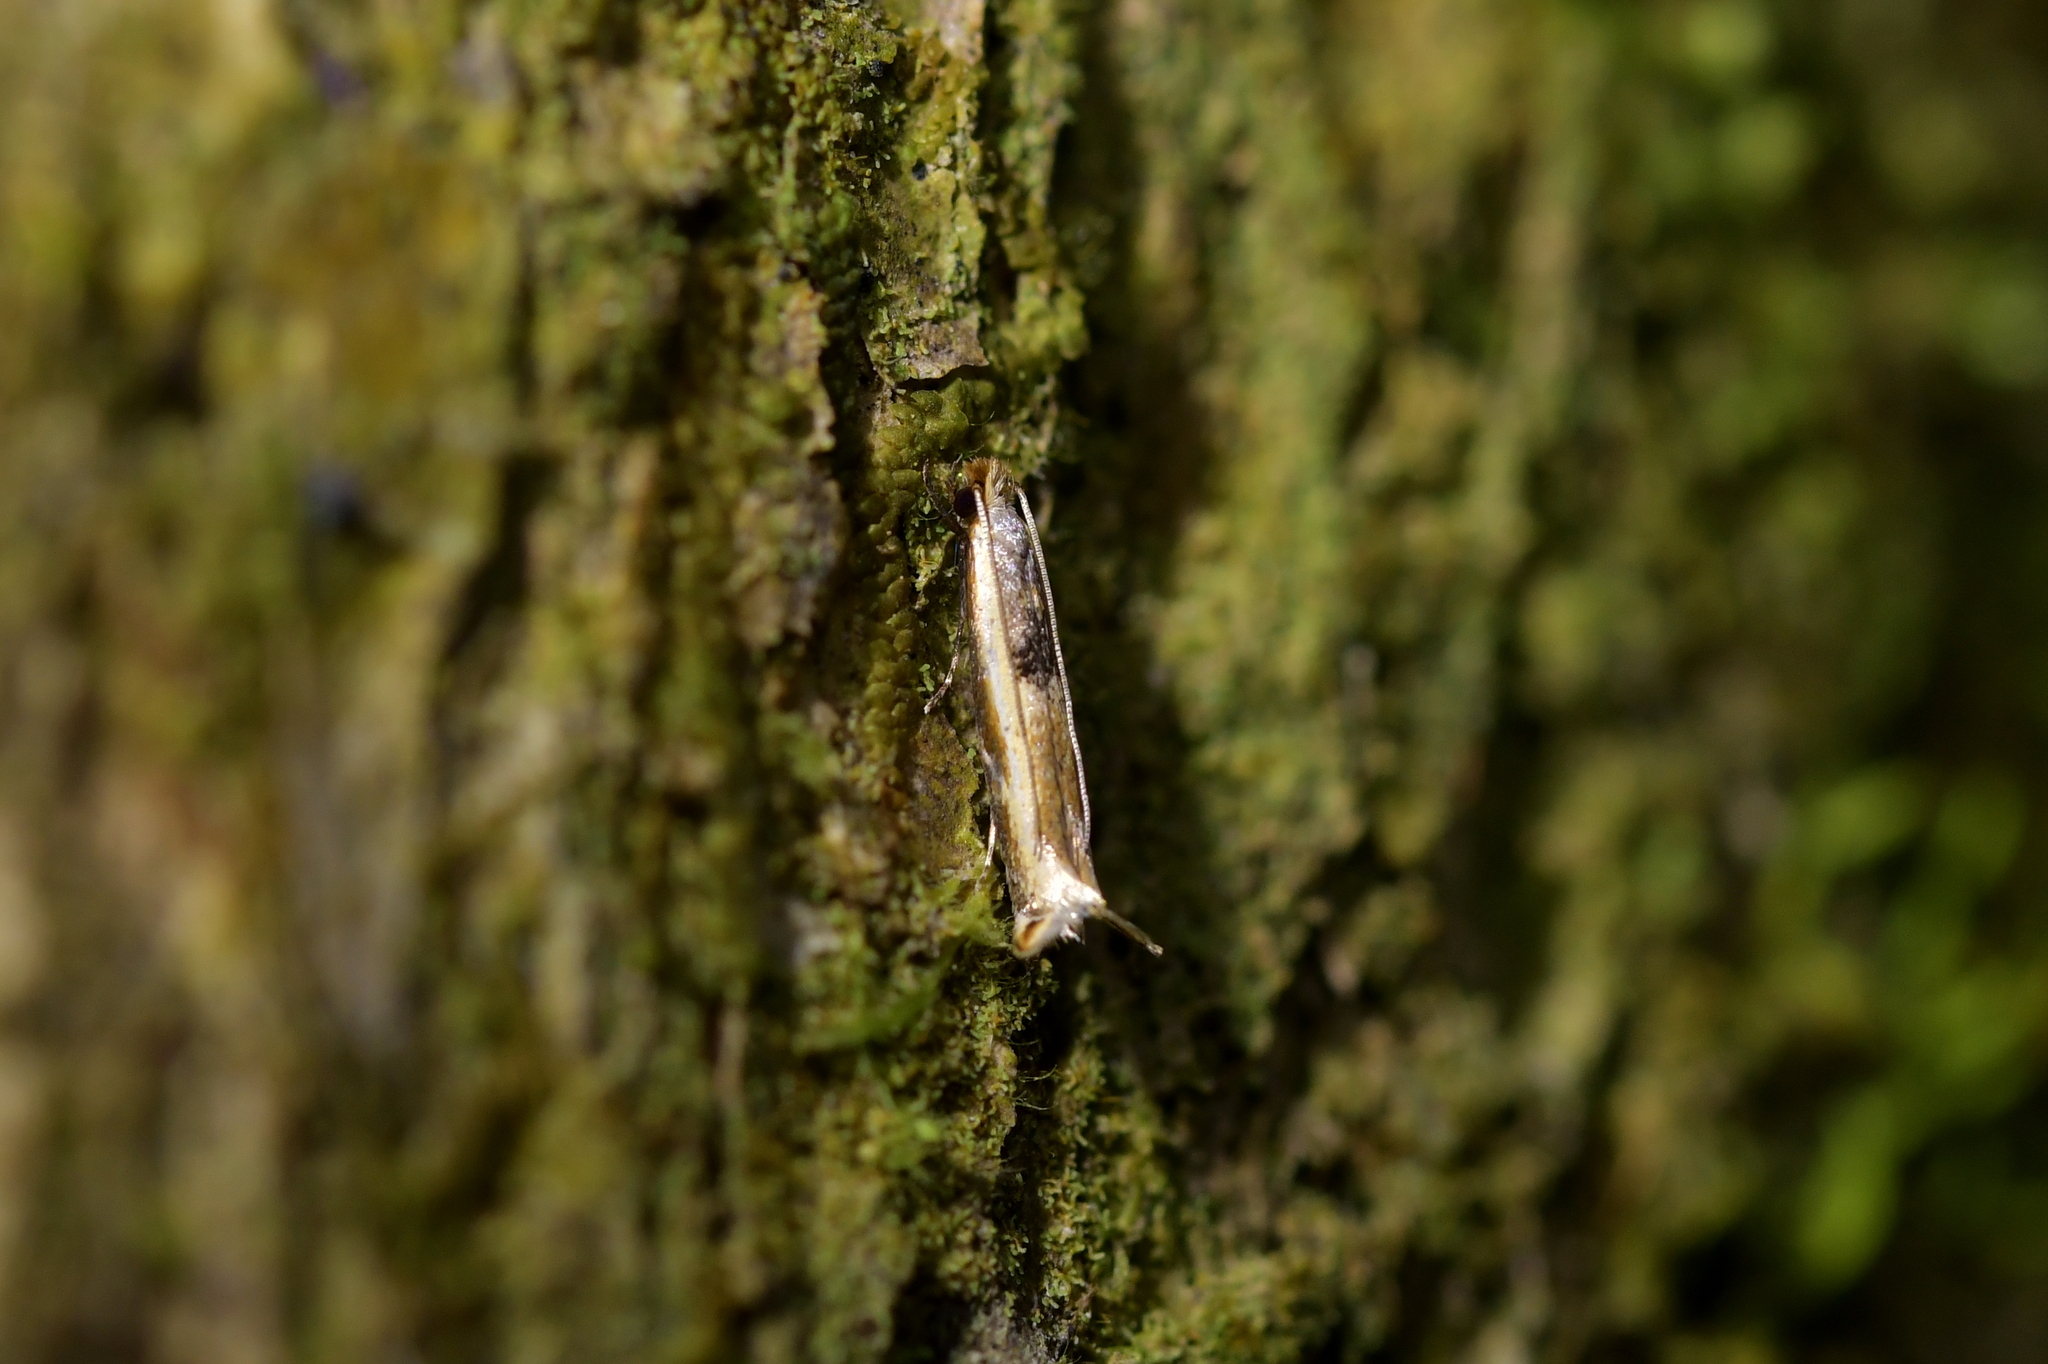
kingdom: Animalia
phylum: Arthropoda
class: Insecta
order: Lepidoptera
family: Tineidae
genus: Erechthias
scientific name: Erechthias charadrota
